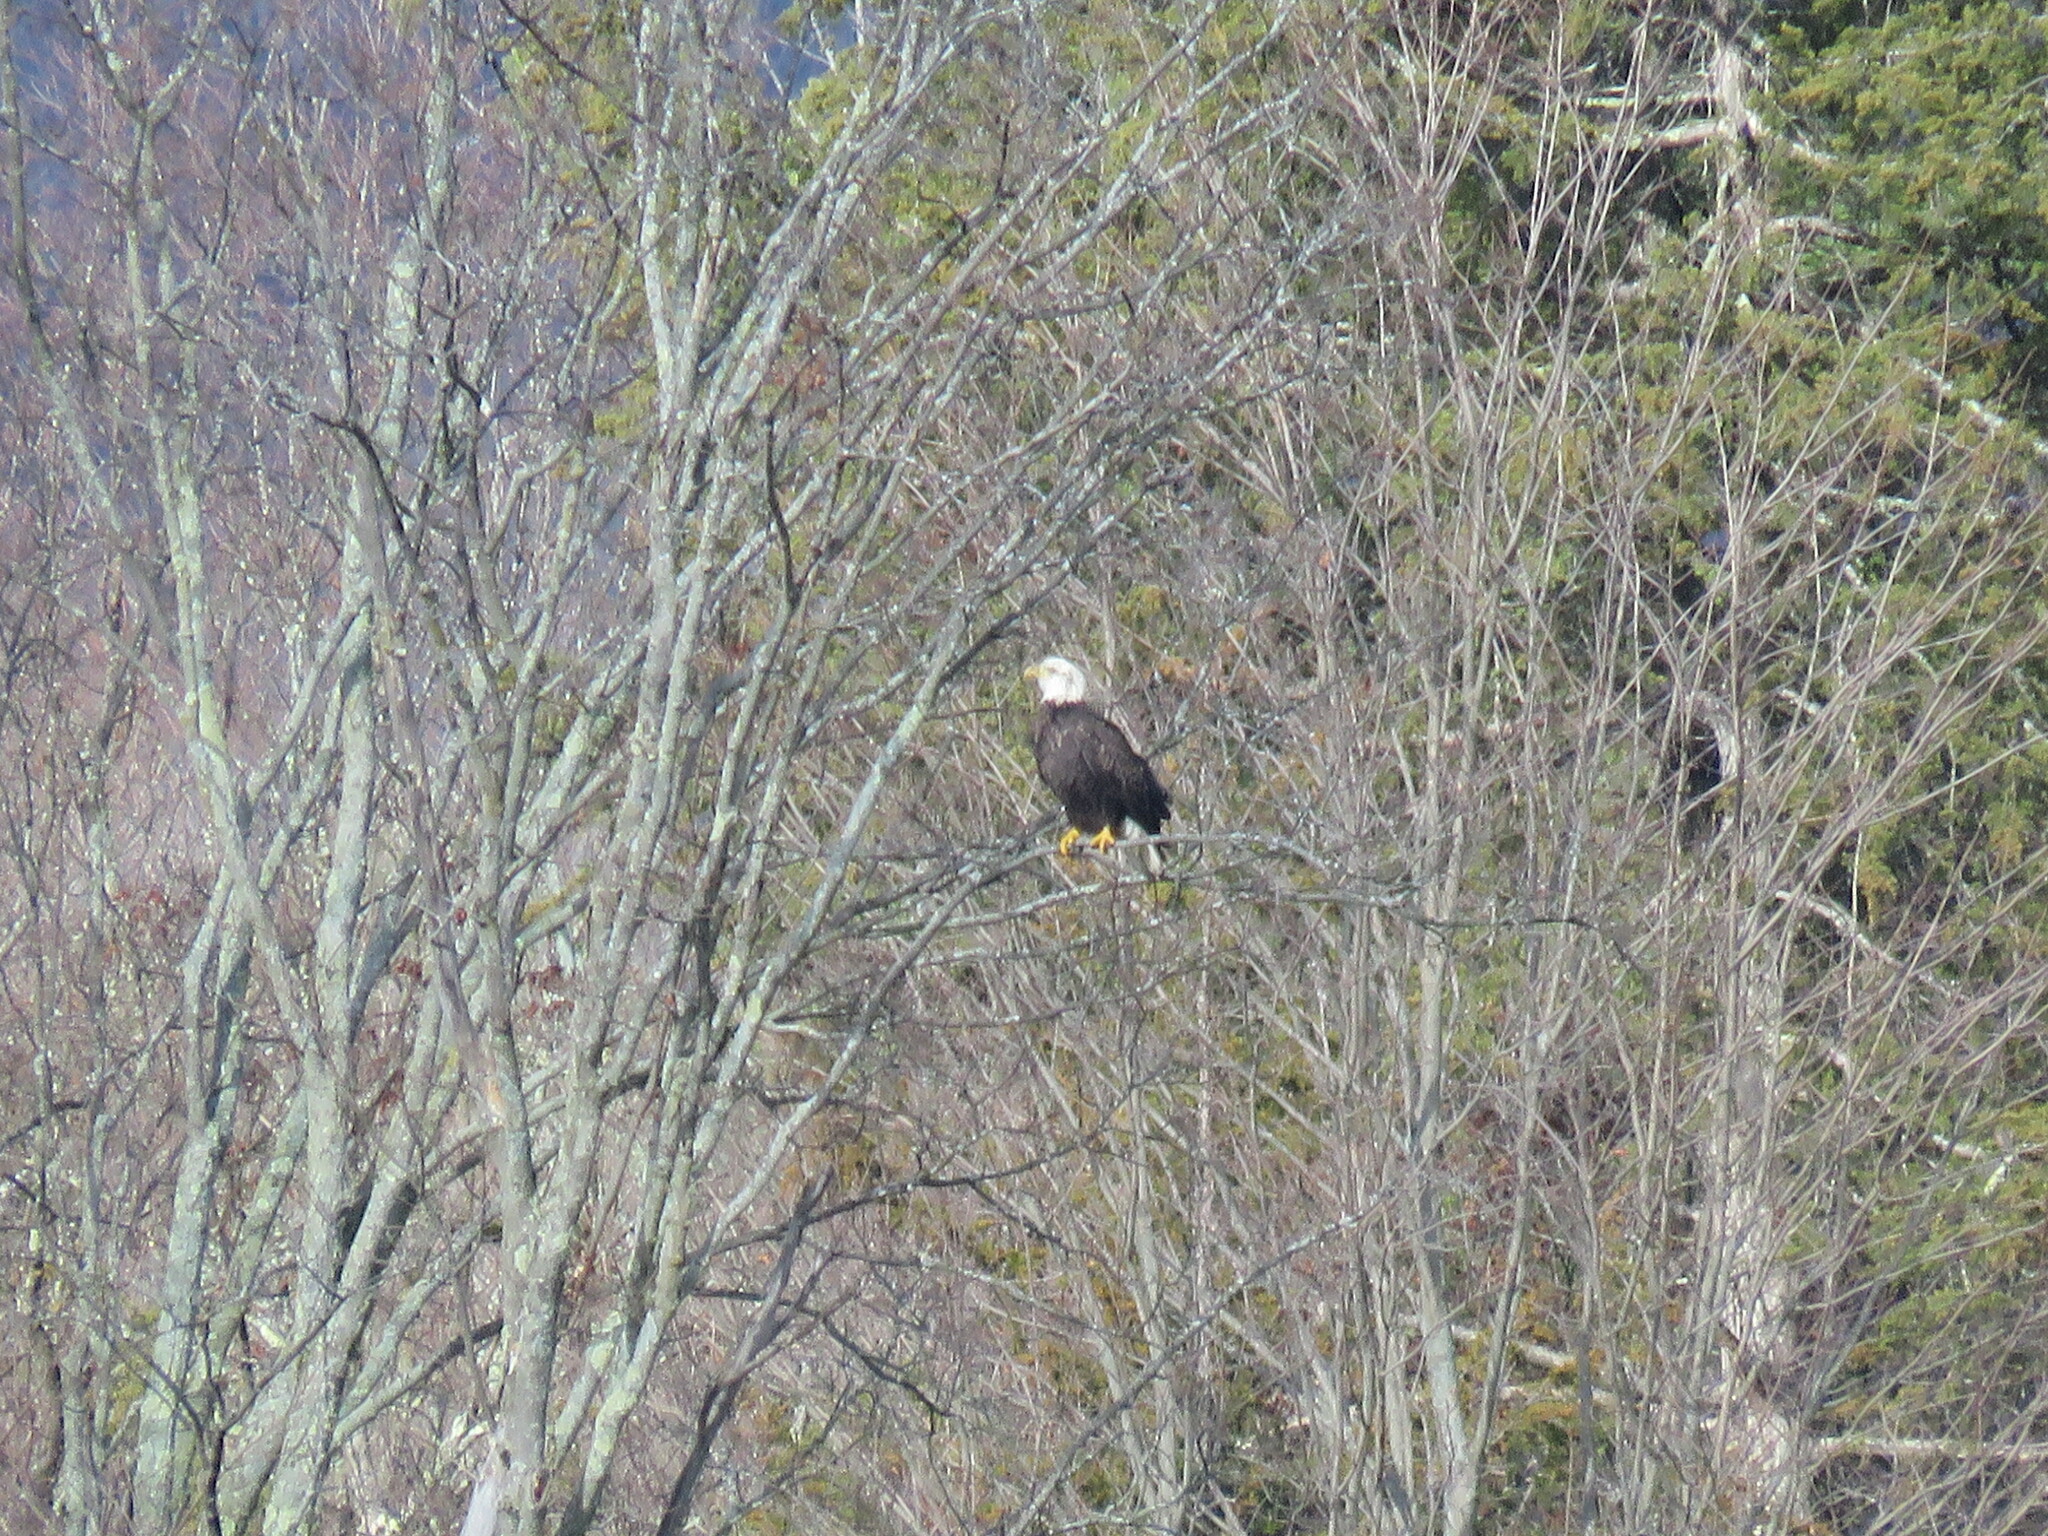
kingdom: Animalia
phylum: Chordata
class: Aves
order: Accipitriformes
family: Accipitridae
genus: Haliaeetus
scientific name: Haliaeetus leucocephalus
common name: Bald eagle
